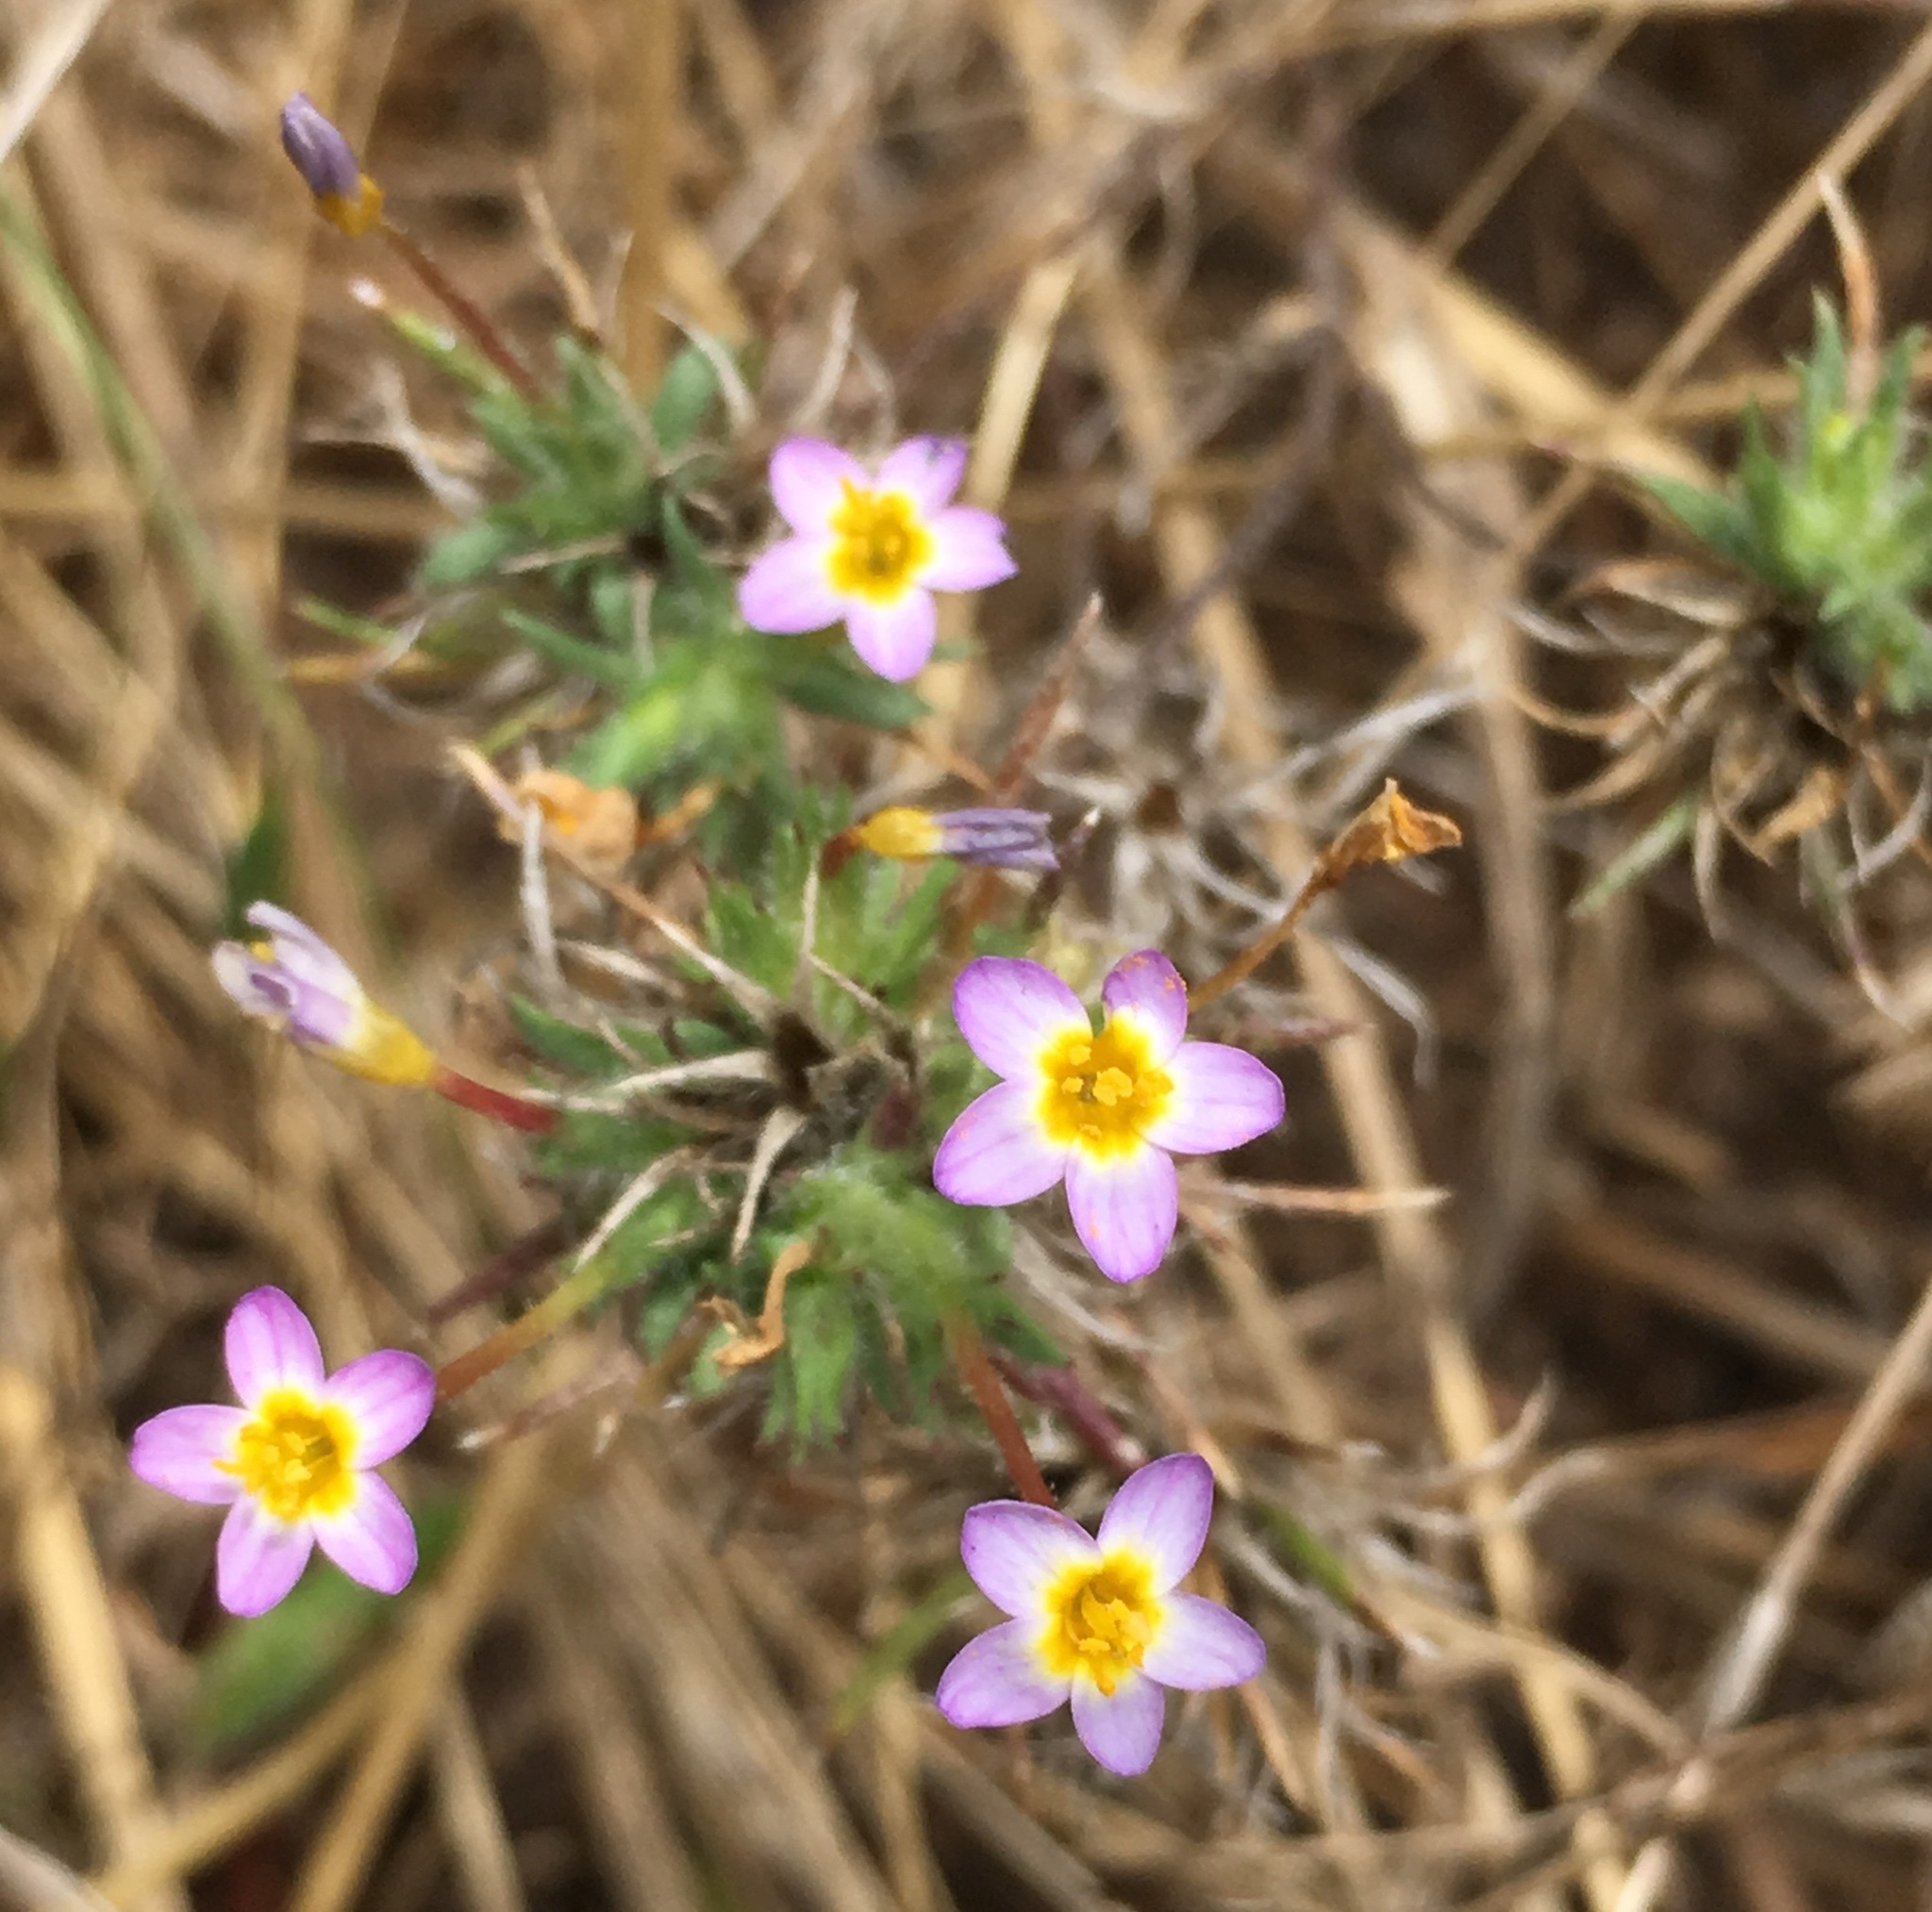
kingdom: Plantae
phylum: Tracheophyta
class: Magnoliopsida
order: Ericales
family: Polemoniaceae
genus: Leptosiphon
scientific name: Leptosiphon bicolor
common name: True babystars
